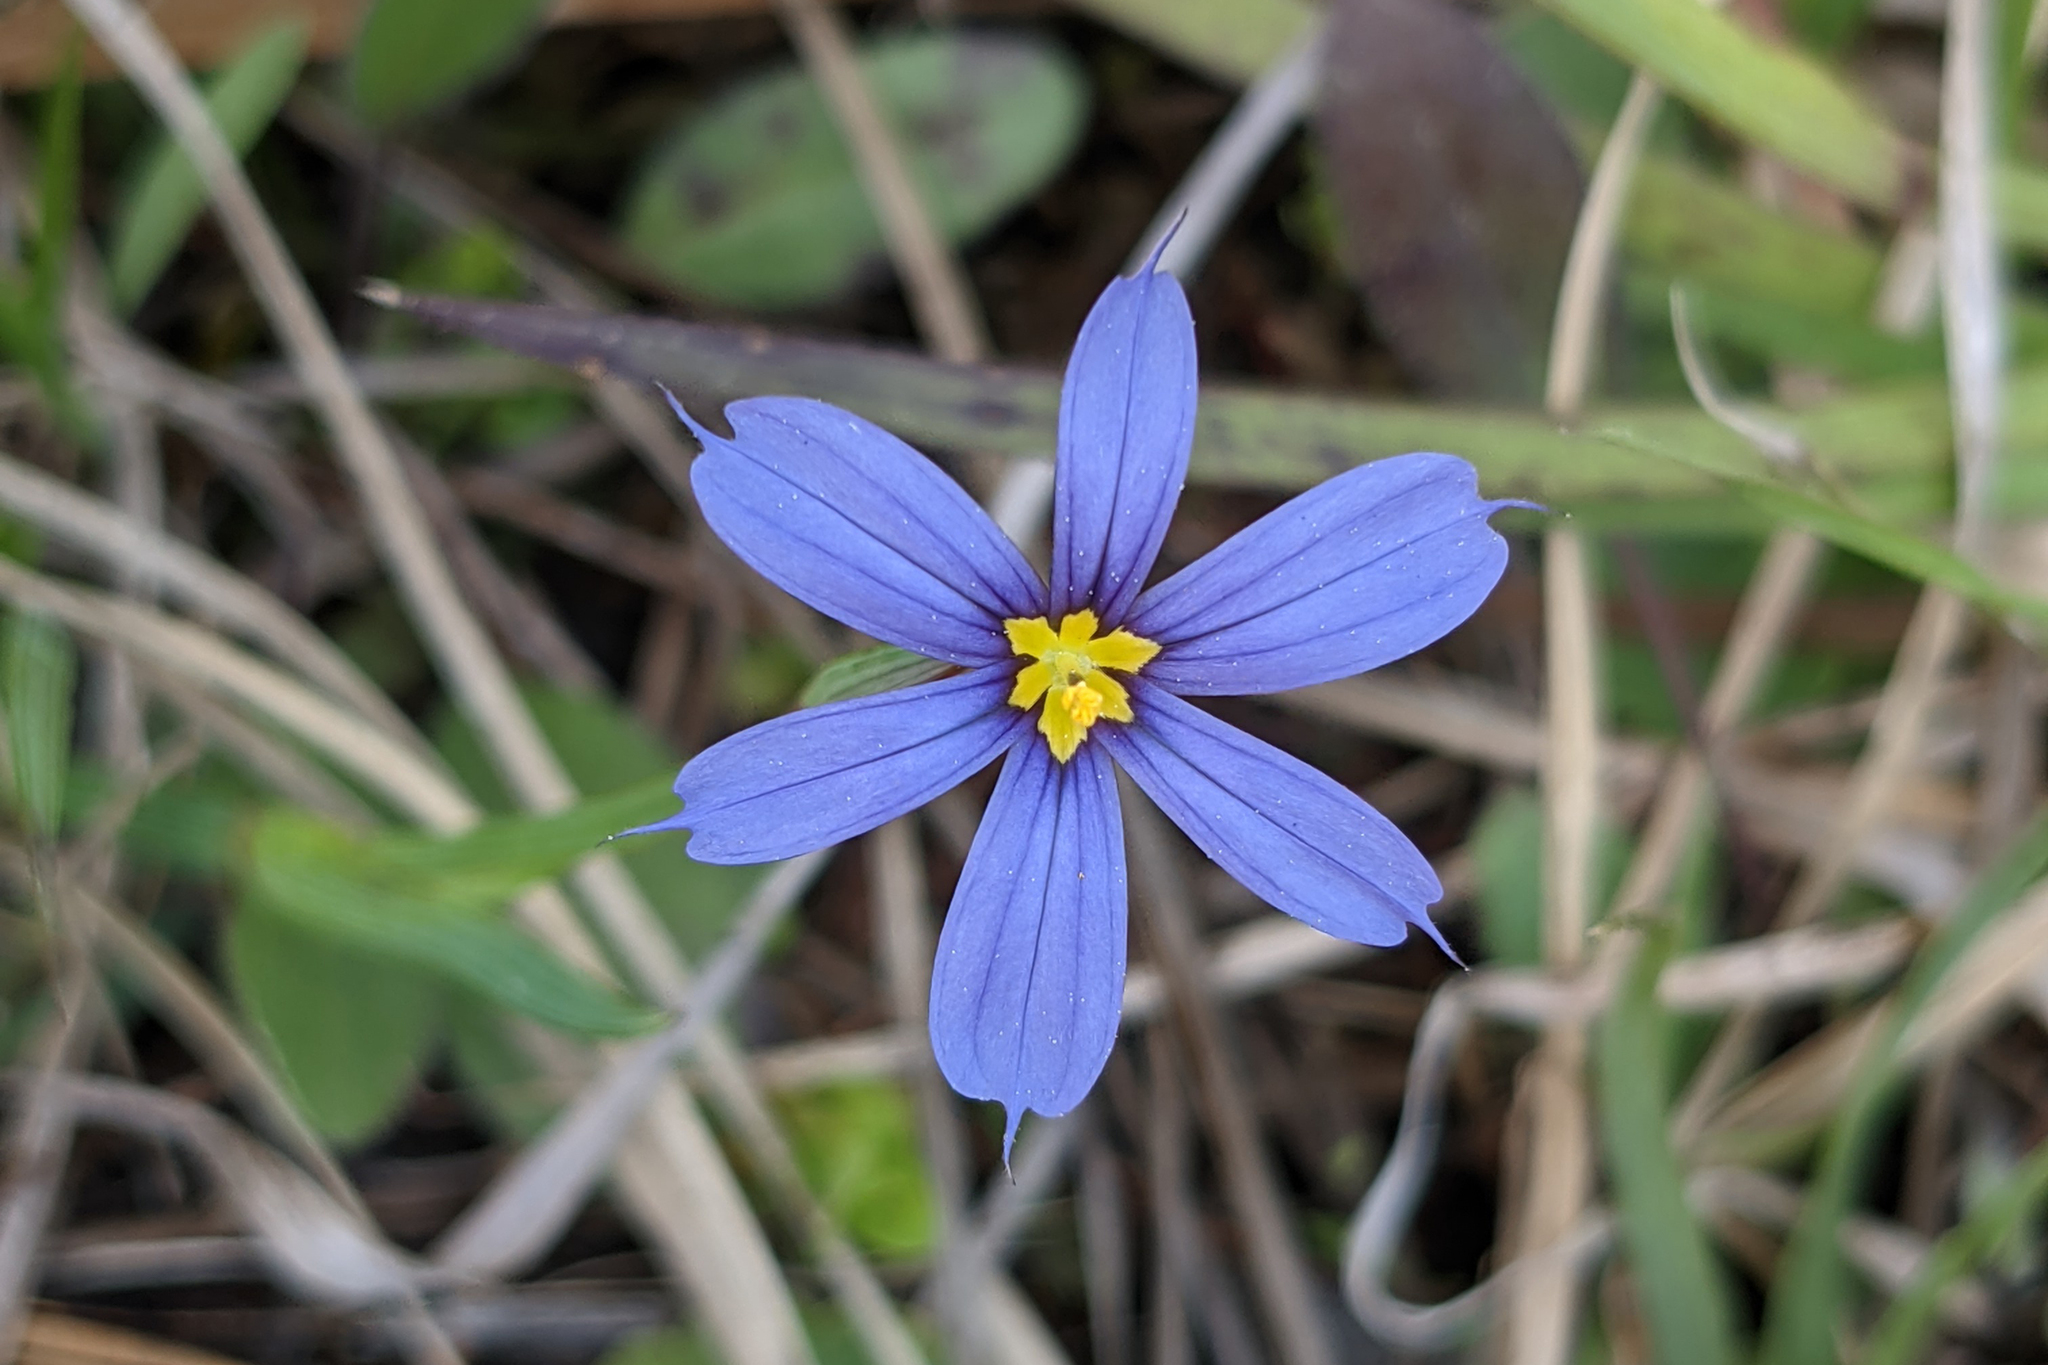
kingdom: Plantae
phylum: Tracheophyta
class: Liliopsida
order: Asparagales
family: Iridaceae
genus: Sisyrinchium
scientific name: Sisyrinchium angustifolium
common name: Narrow-leaf blue-eyed-grass
